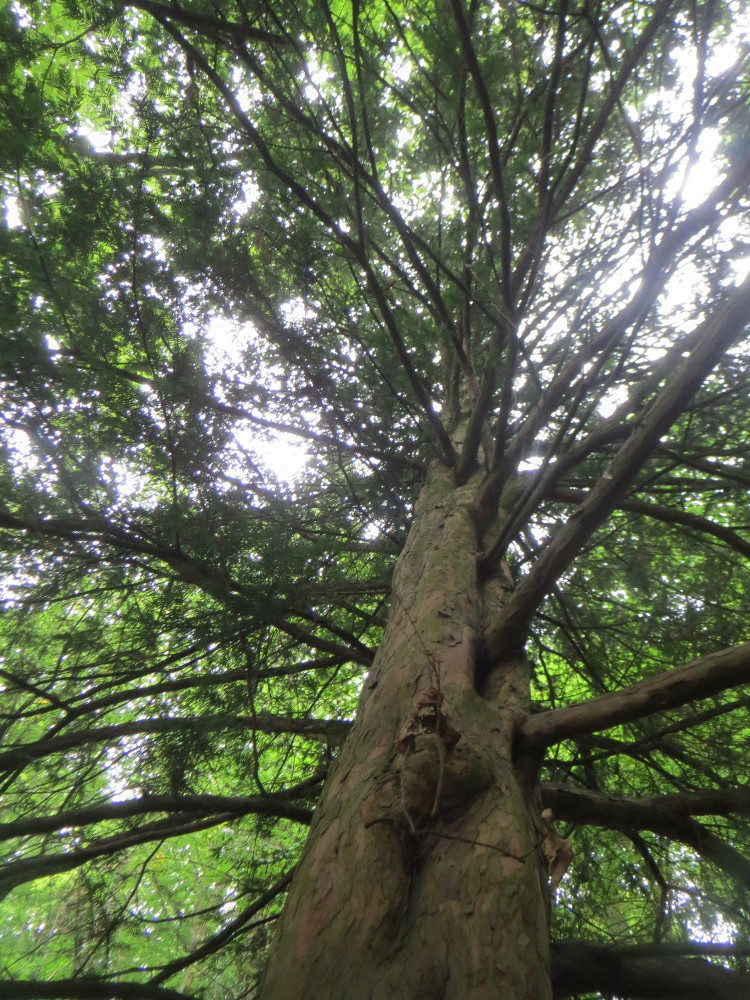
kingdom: Plantae
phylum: Tracheophyta
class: Pinopsida
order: Pinales
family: Taxaceae
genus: Taxus
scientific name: Taxus baccata
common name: Yew
